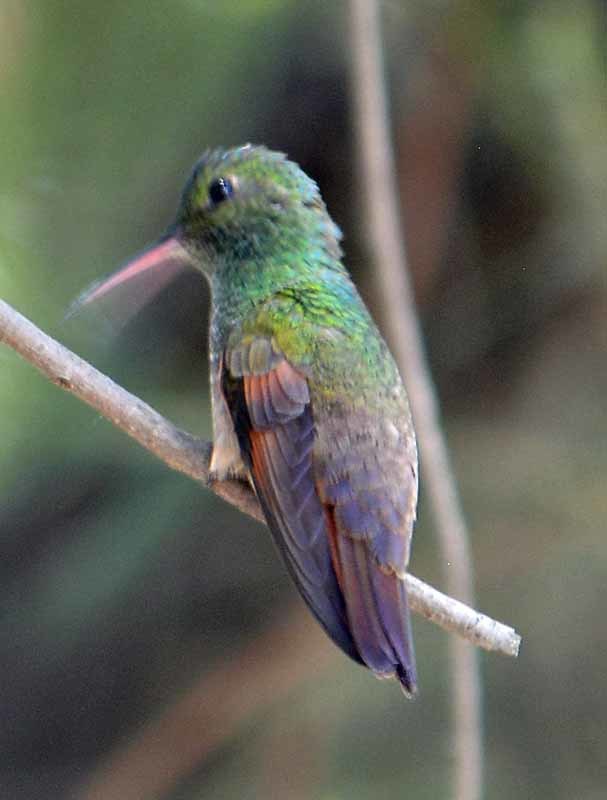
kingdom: Animalia
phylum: Chordata
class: Aves
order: Apodiformes
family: Trochilidae
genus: Saucerottia
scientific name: Saucerottia beryllina
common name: Berylline hummingbird
